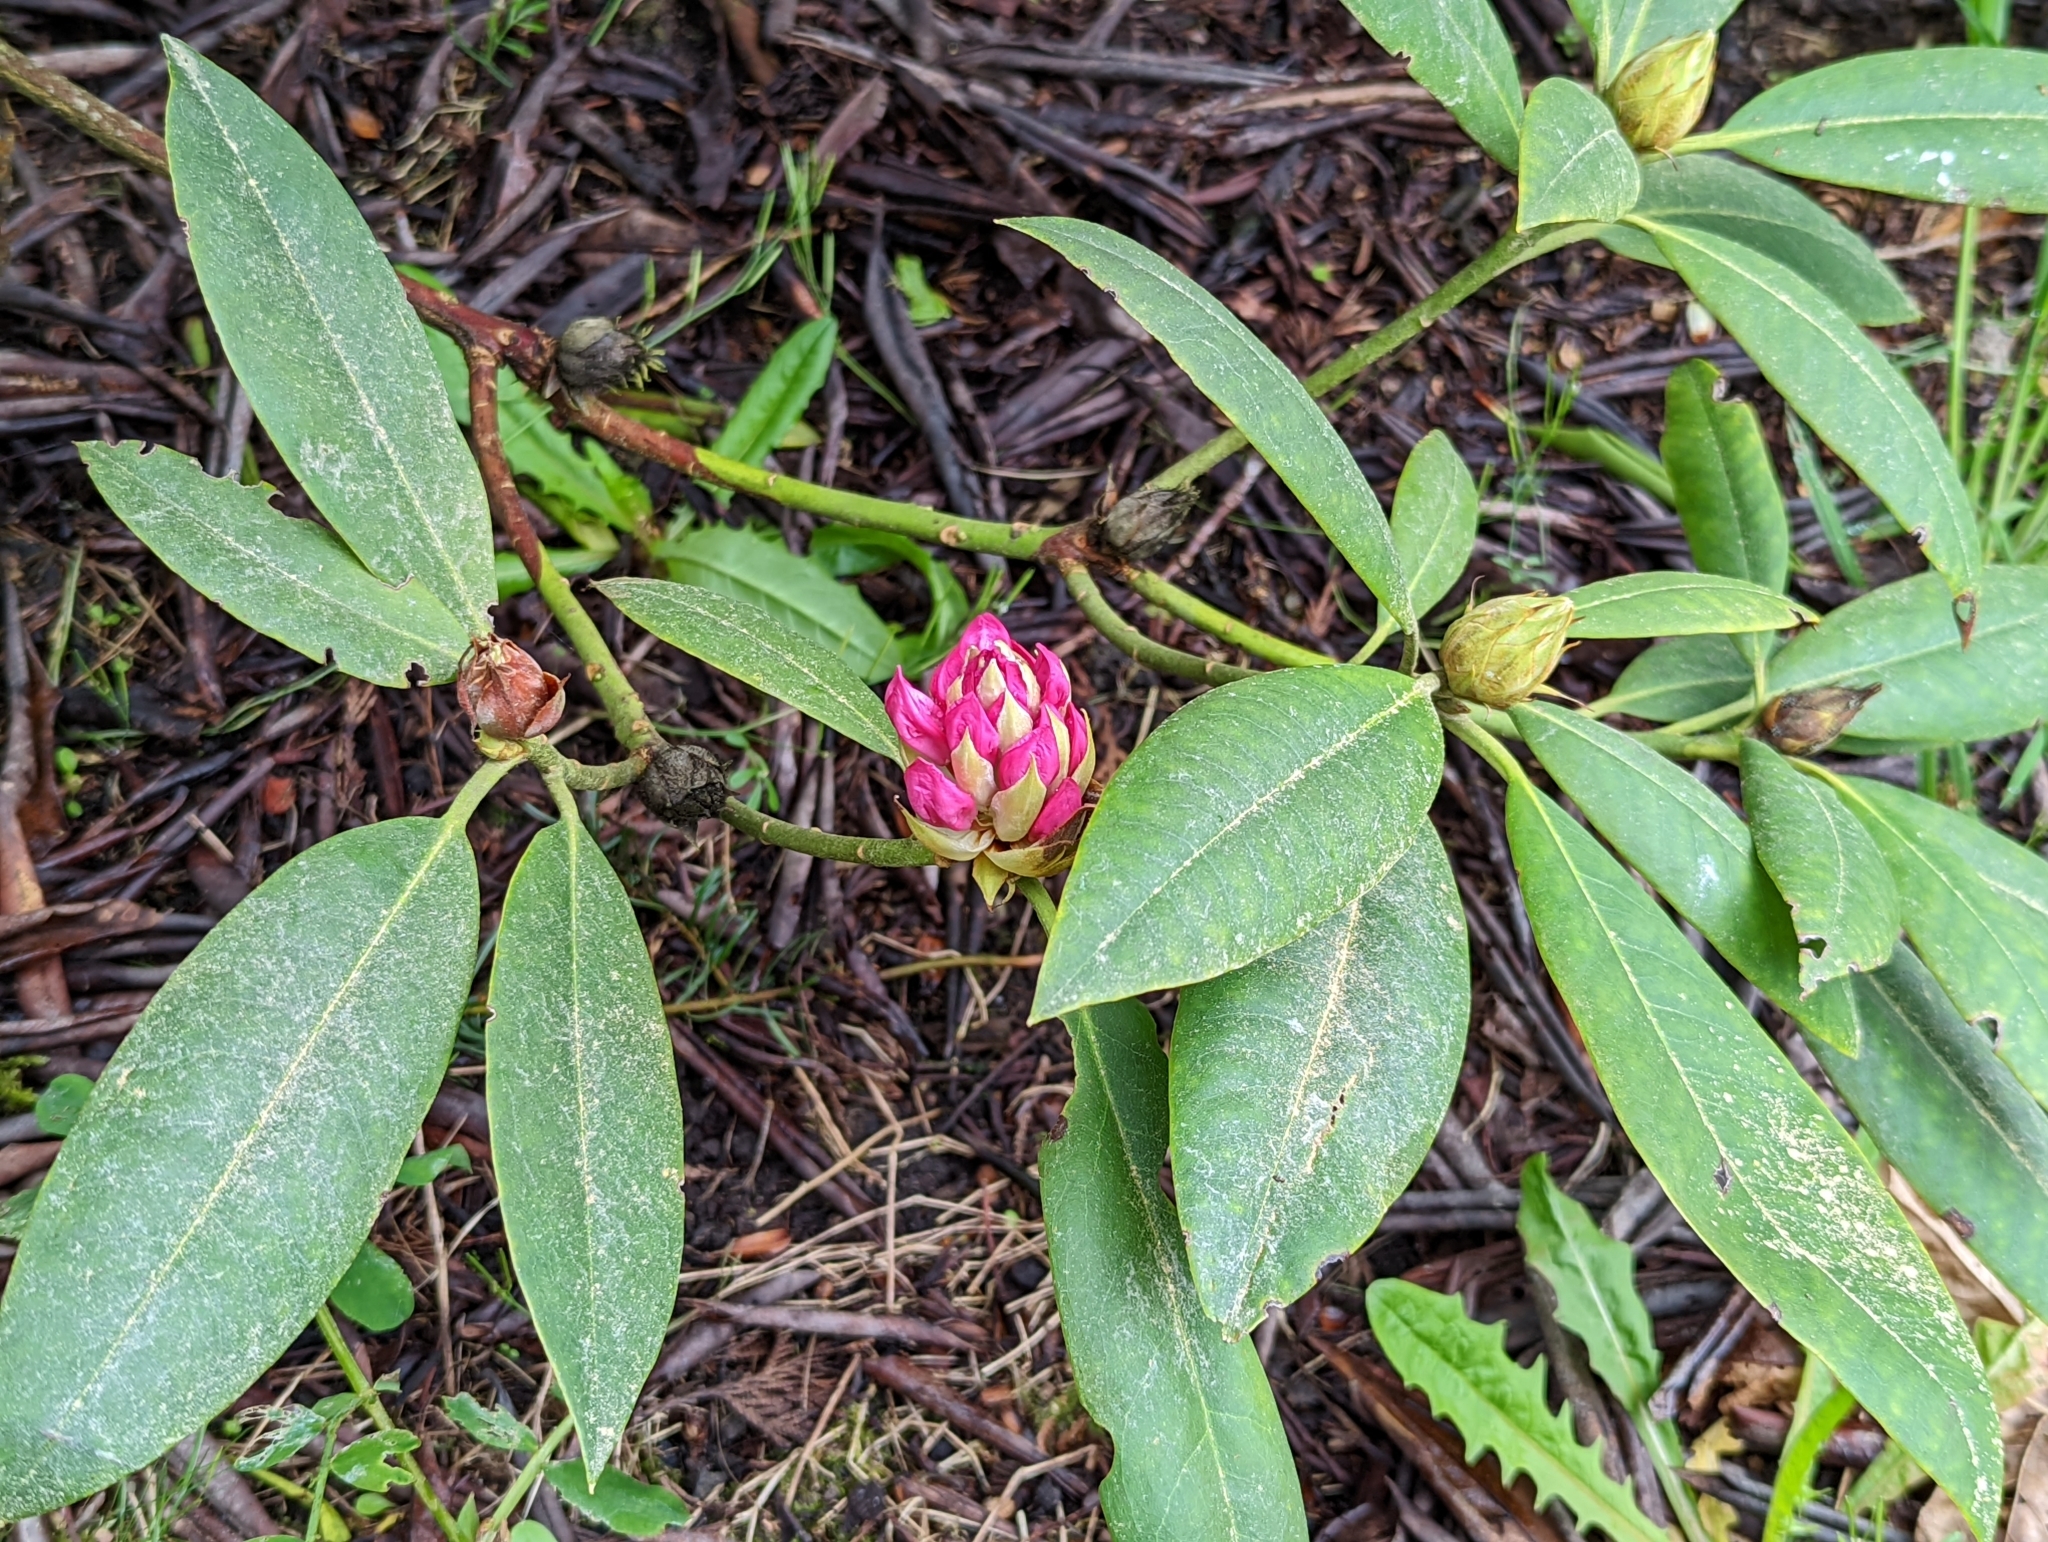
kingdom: Plantae
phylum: Tracheophyta
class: Magnoliopsida
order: Ericales
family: Ericaceae
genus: Rhododendron
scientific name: Rhododendron macrophyllum
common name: California rose bay
